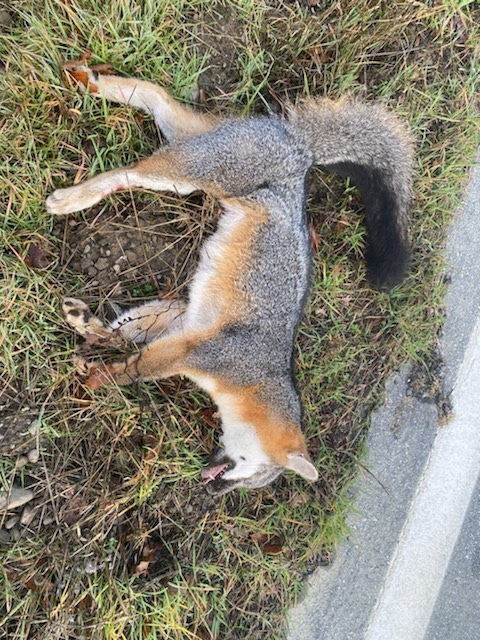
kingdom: Animalia
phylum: Chordata
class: Mammalia
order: Carnivora
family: Canidae
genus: Urocyon
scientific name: Urocyon cinereoargenteus
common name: Gray fox
